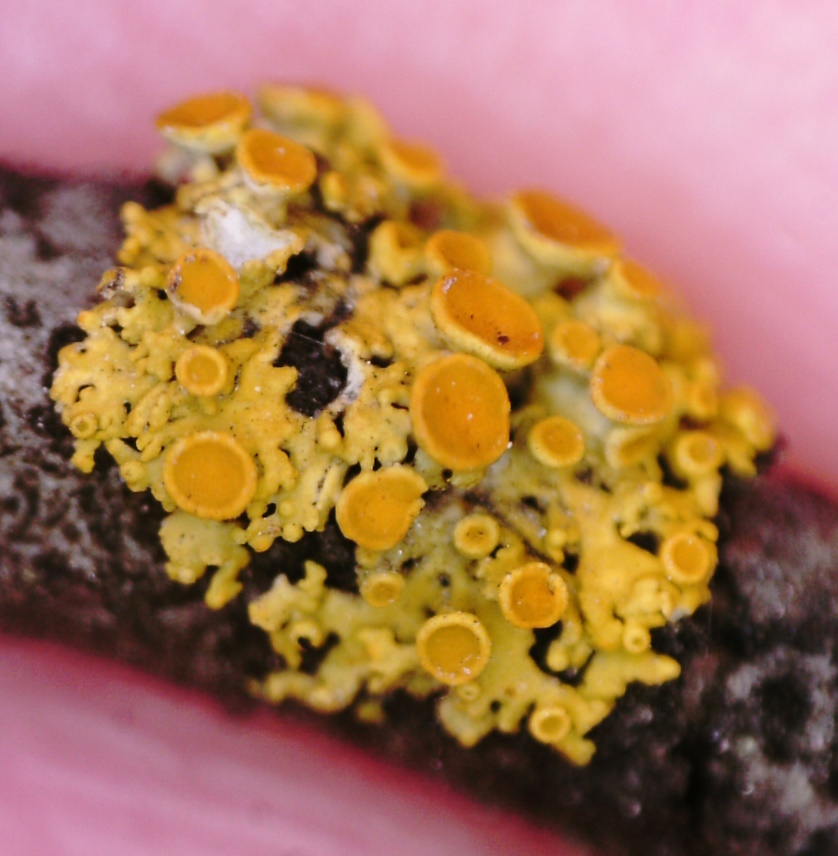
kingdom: Fungi
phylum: Ascomycota
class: Lecanoromycetes
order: Teloschistales
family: Teloschistaceae
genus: Polycauliona
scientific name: Polycauliona polycarpa
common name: Pin-cushion sunburst lichen
